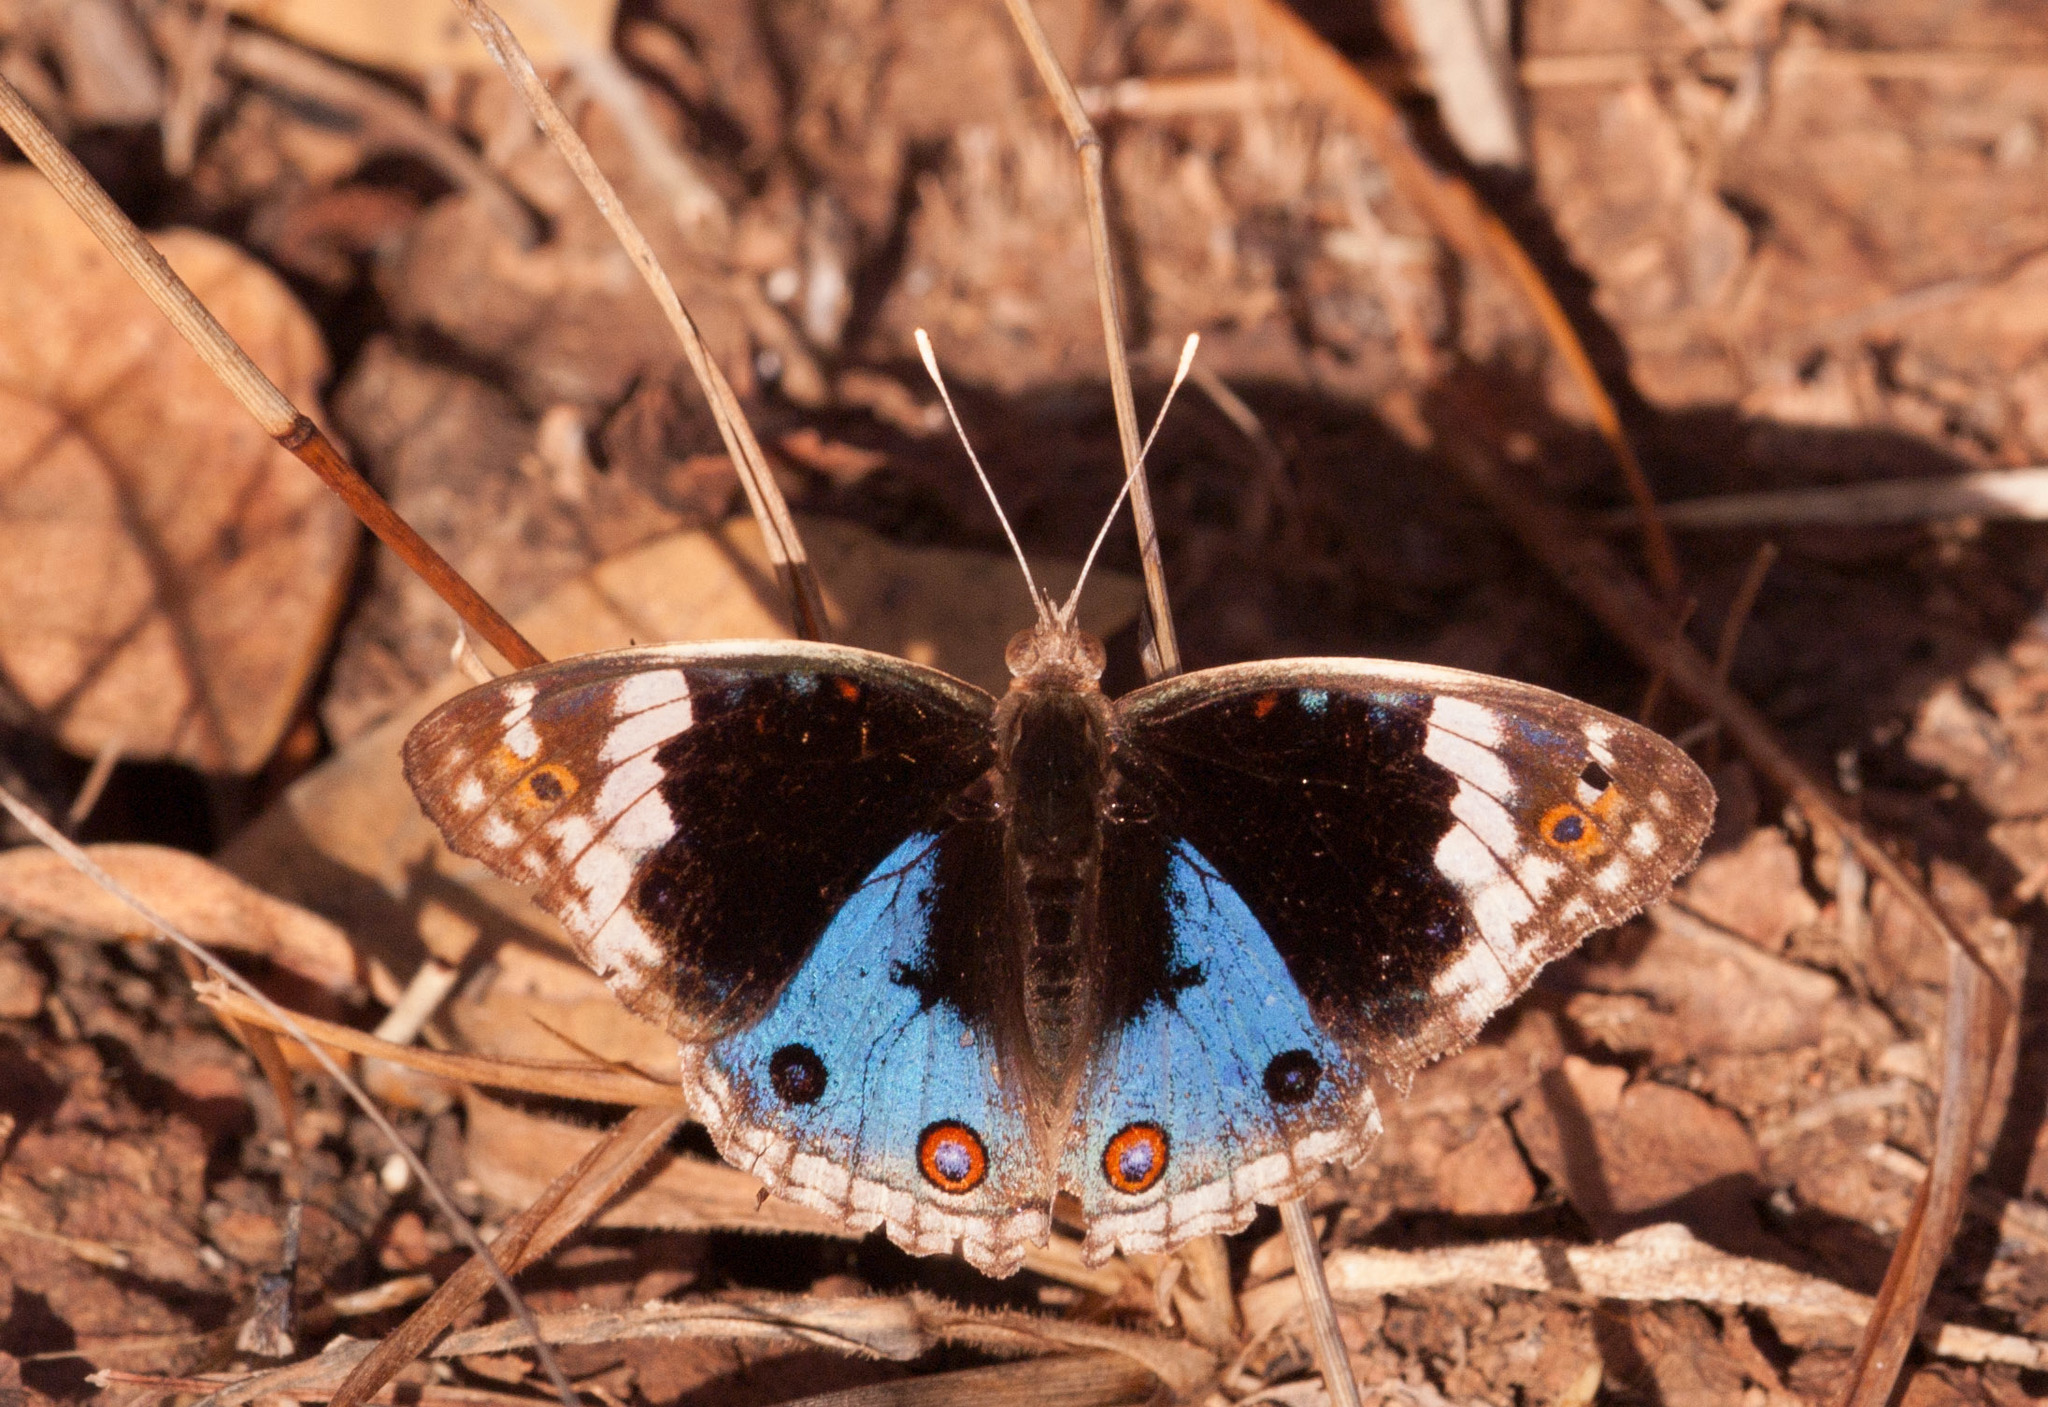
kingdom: Animalia
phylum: Arthropoda
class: Insecta
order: Lepidoptera
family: Nymphalidae
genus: Junonia
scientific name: Junonia orithya
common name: Blue pansy
